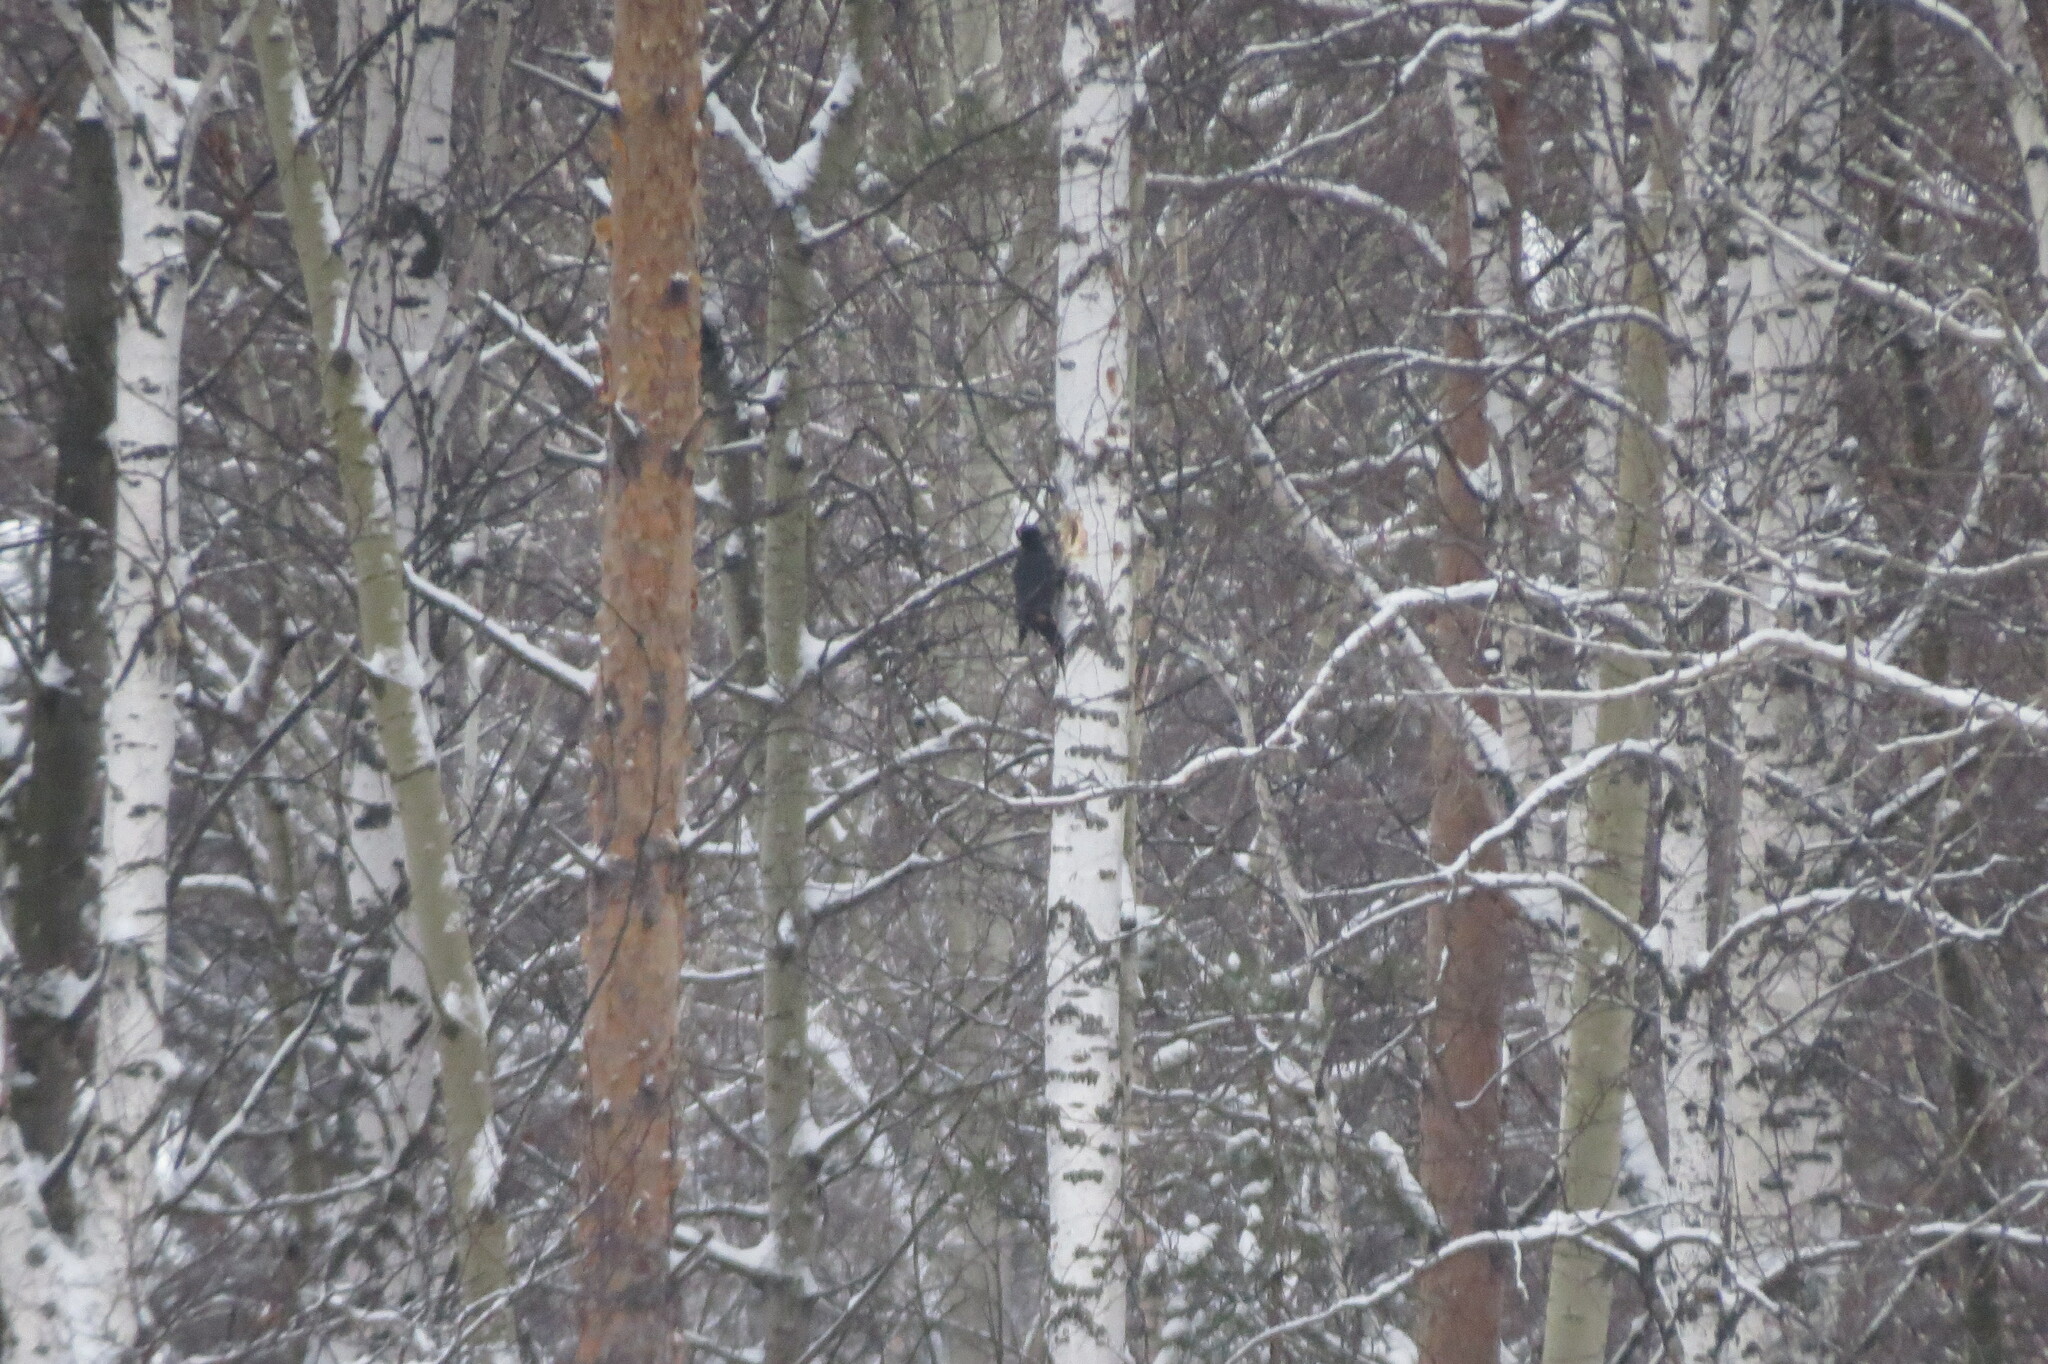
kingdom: Animalia
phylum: Chordata
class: Aves
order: Piciformes
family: Picidae
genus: Dryocopus
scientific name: Dryocopus martius
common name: Black woodpecker
